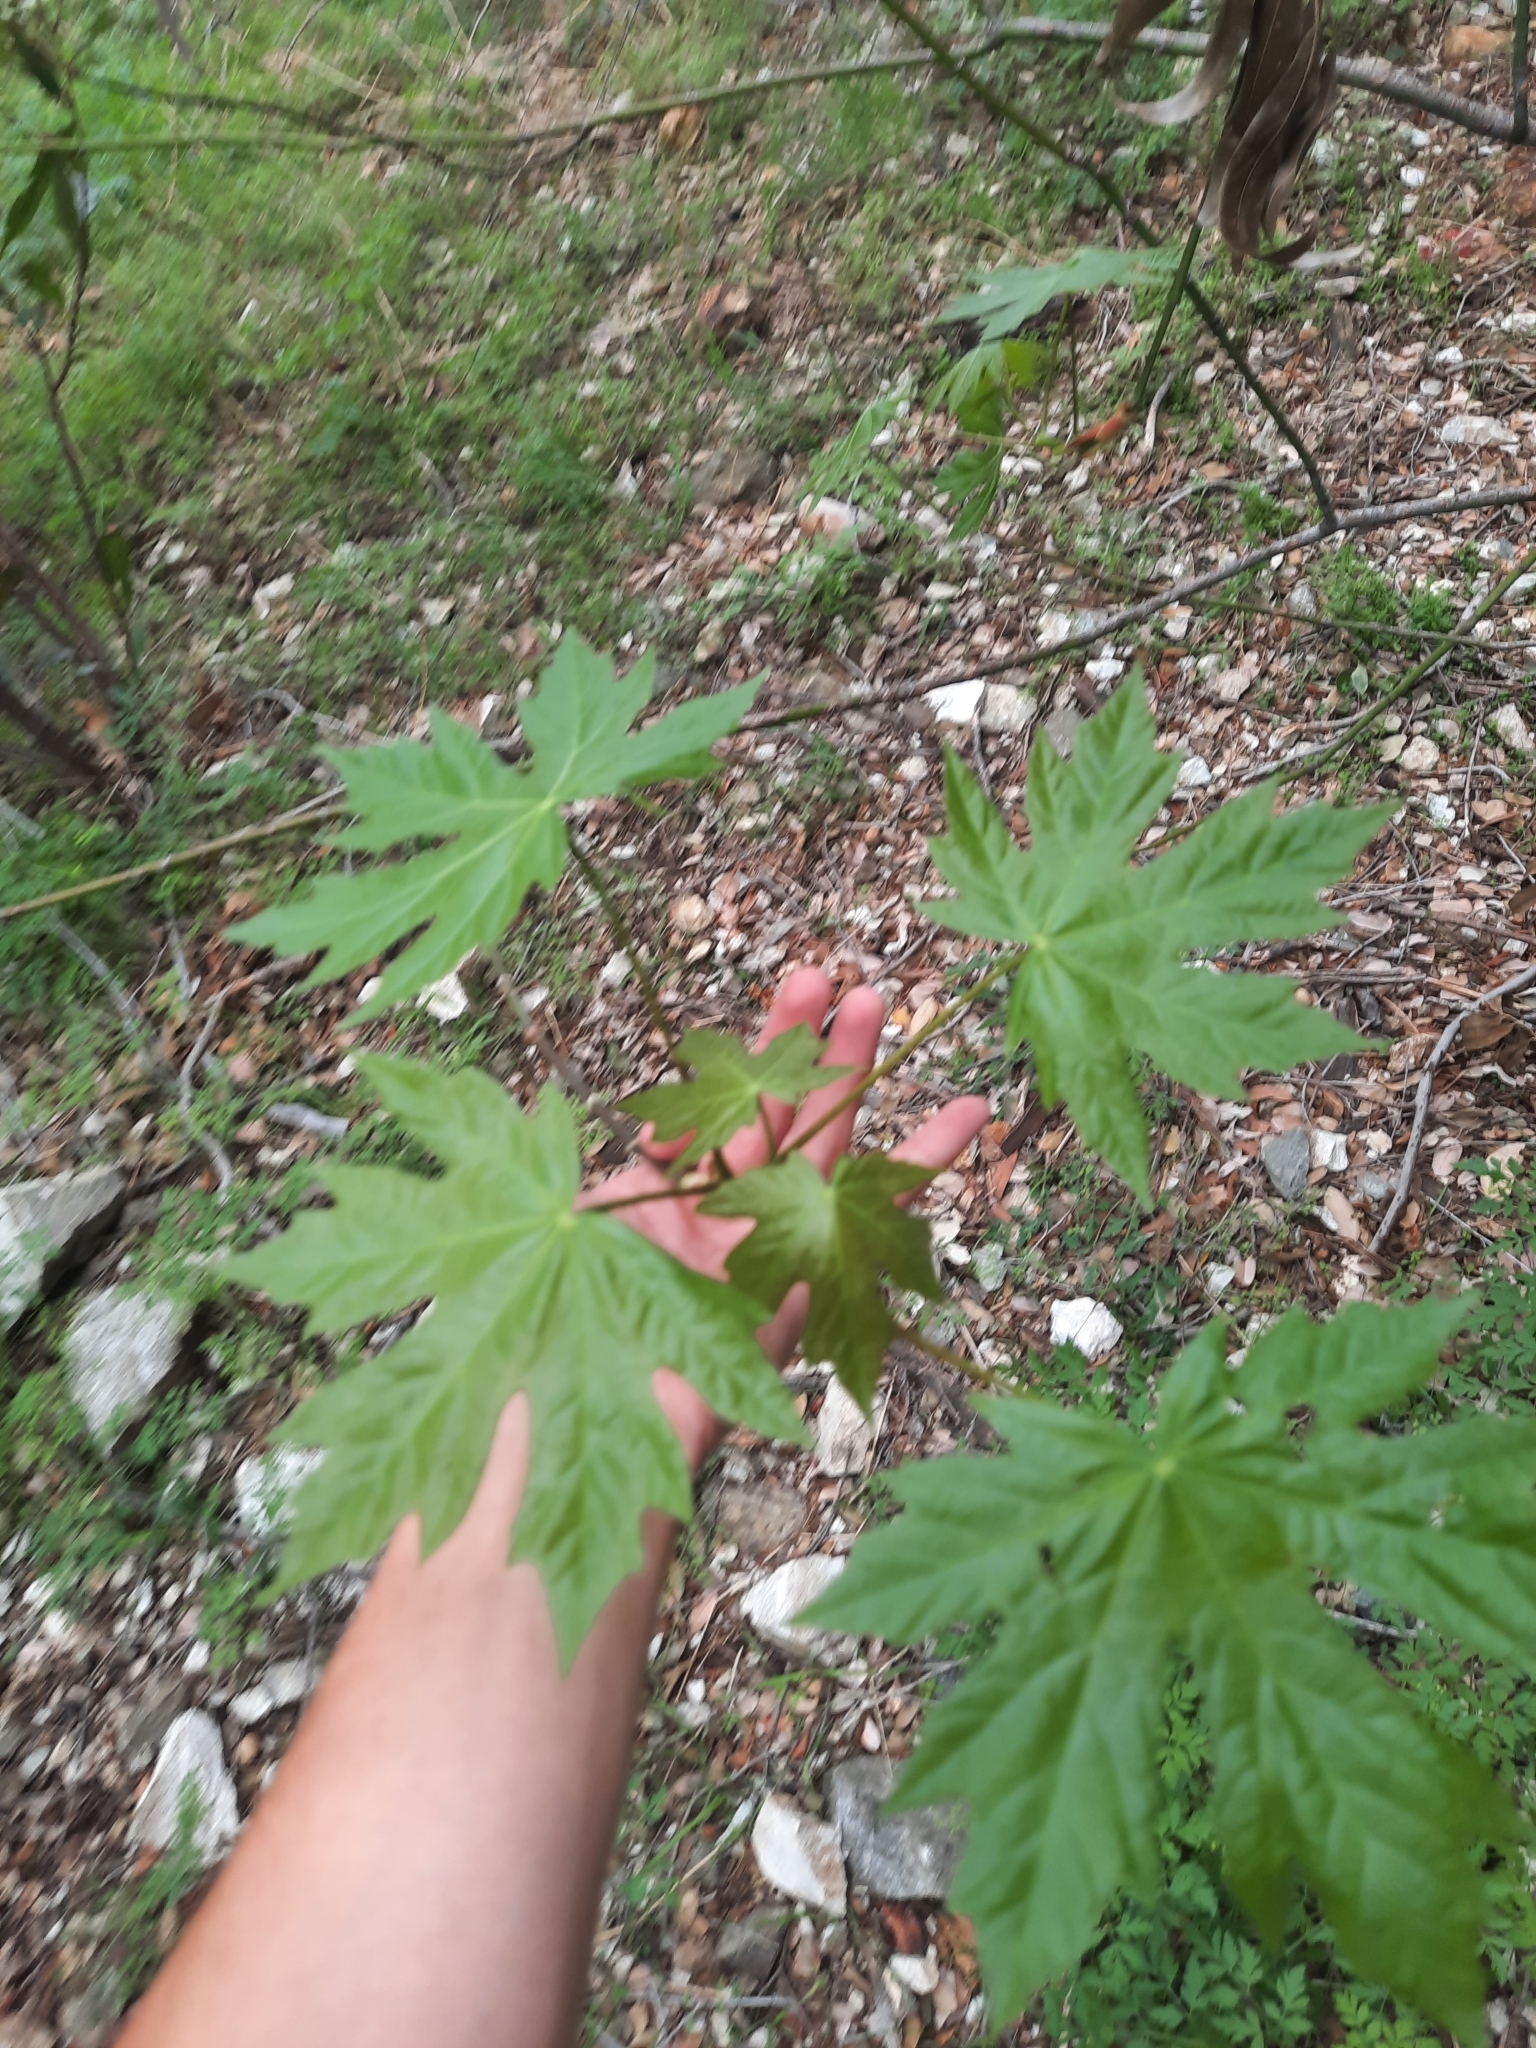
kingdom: Plantae
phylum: Tracheophyta
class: Magnoliopsida
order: Sapindales
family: Sapindaceae
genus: Acer
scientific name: Acer macrophyllum
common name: Oregon maple
